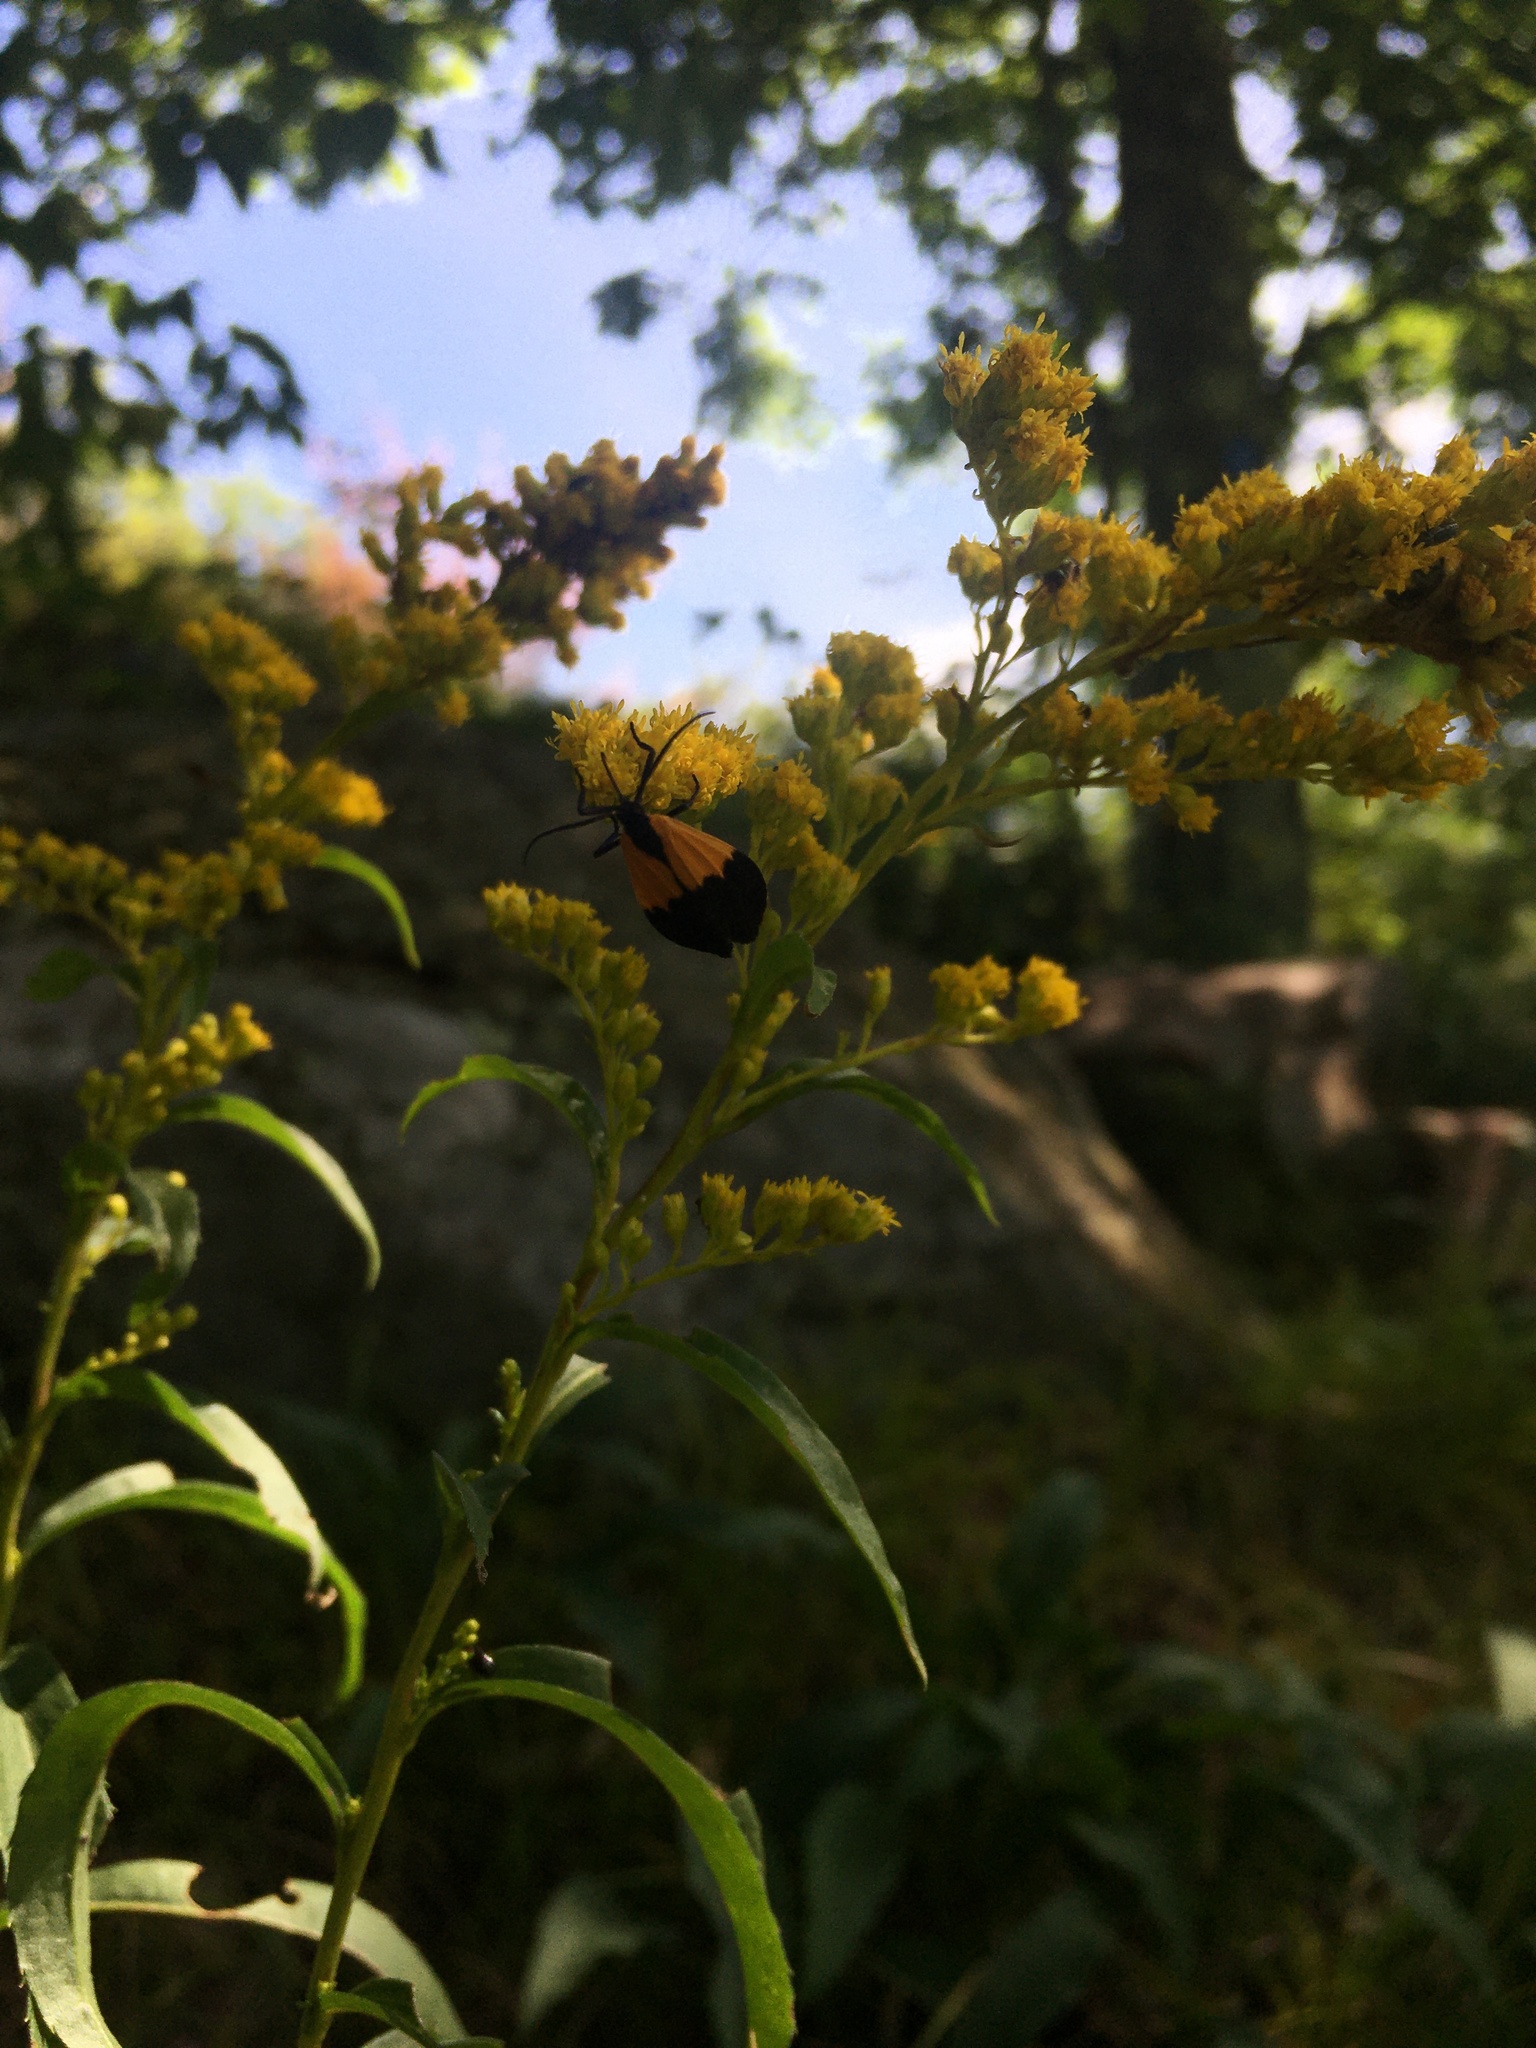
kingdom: Animalia
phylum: Arthropoda
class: Insecta
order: Lepidoptera
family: Erebidae
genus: Lycomorpha
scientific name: Lycomorpha pholus
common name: Black-and-yellow lichen moth
